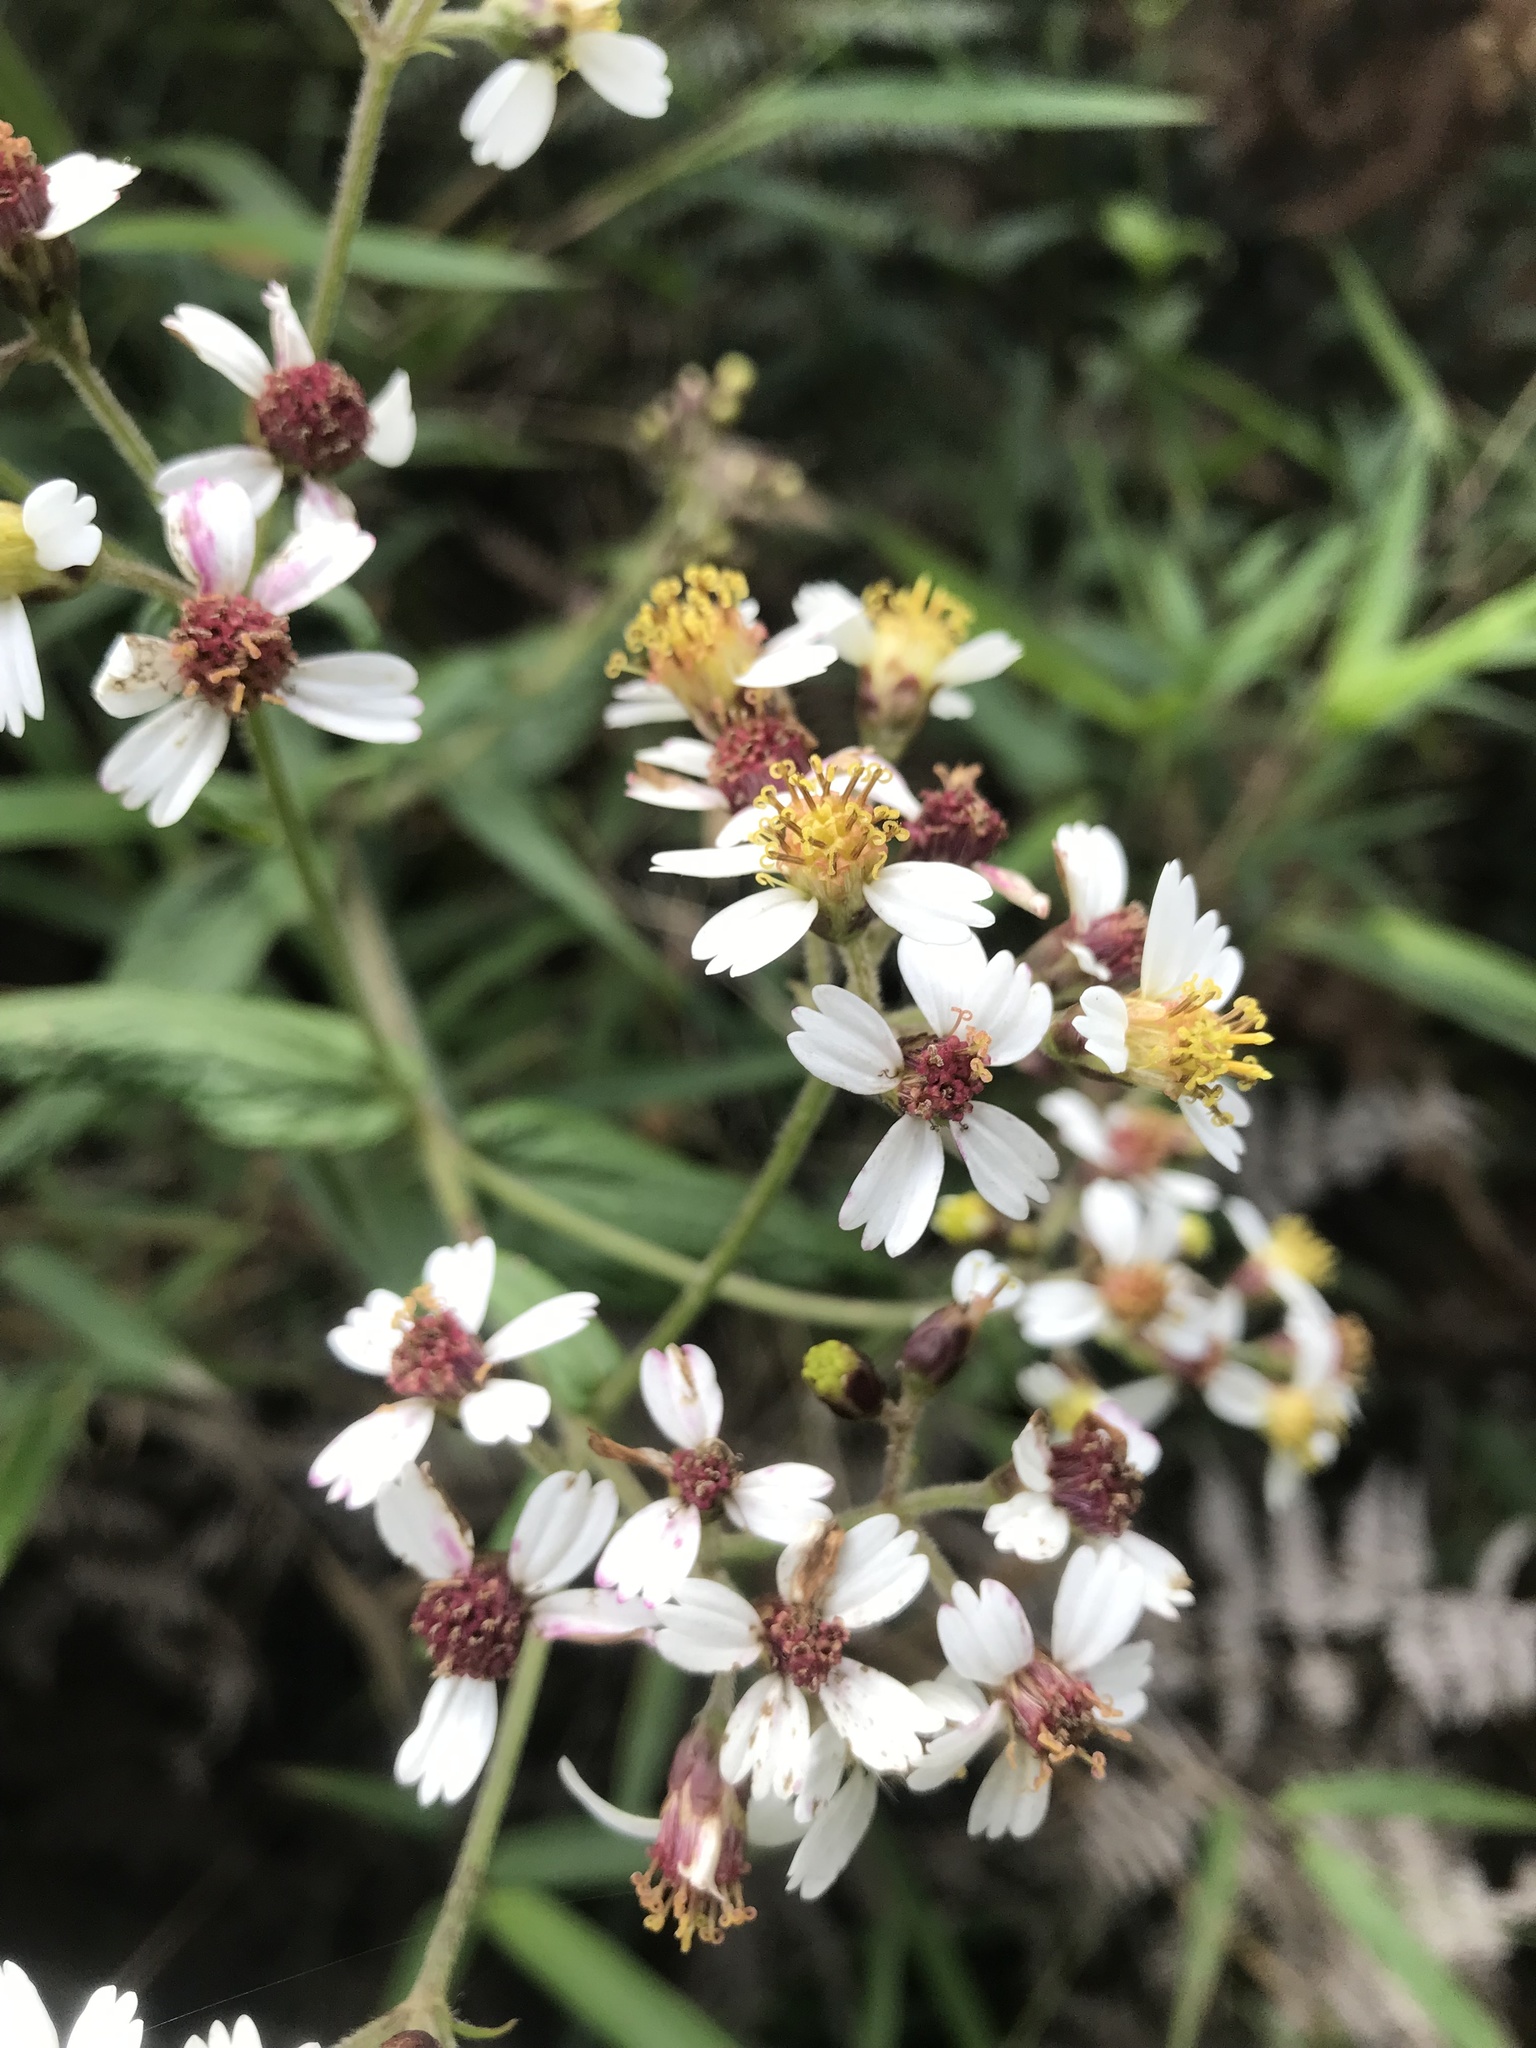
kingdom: Plantae
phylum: Tracheophyta
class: Magnoliopsida
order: Asterales
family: Asteraceae
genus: Alloispermum
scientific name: Alloispermum caracasanum
